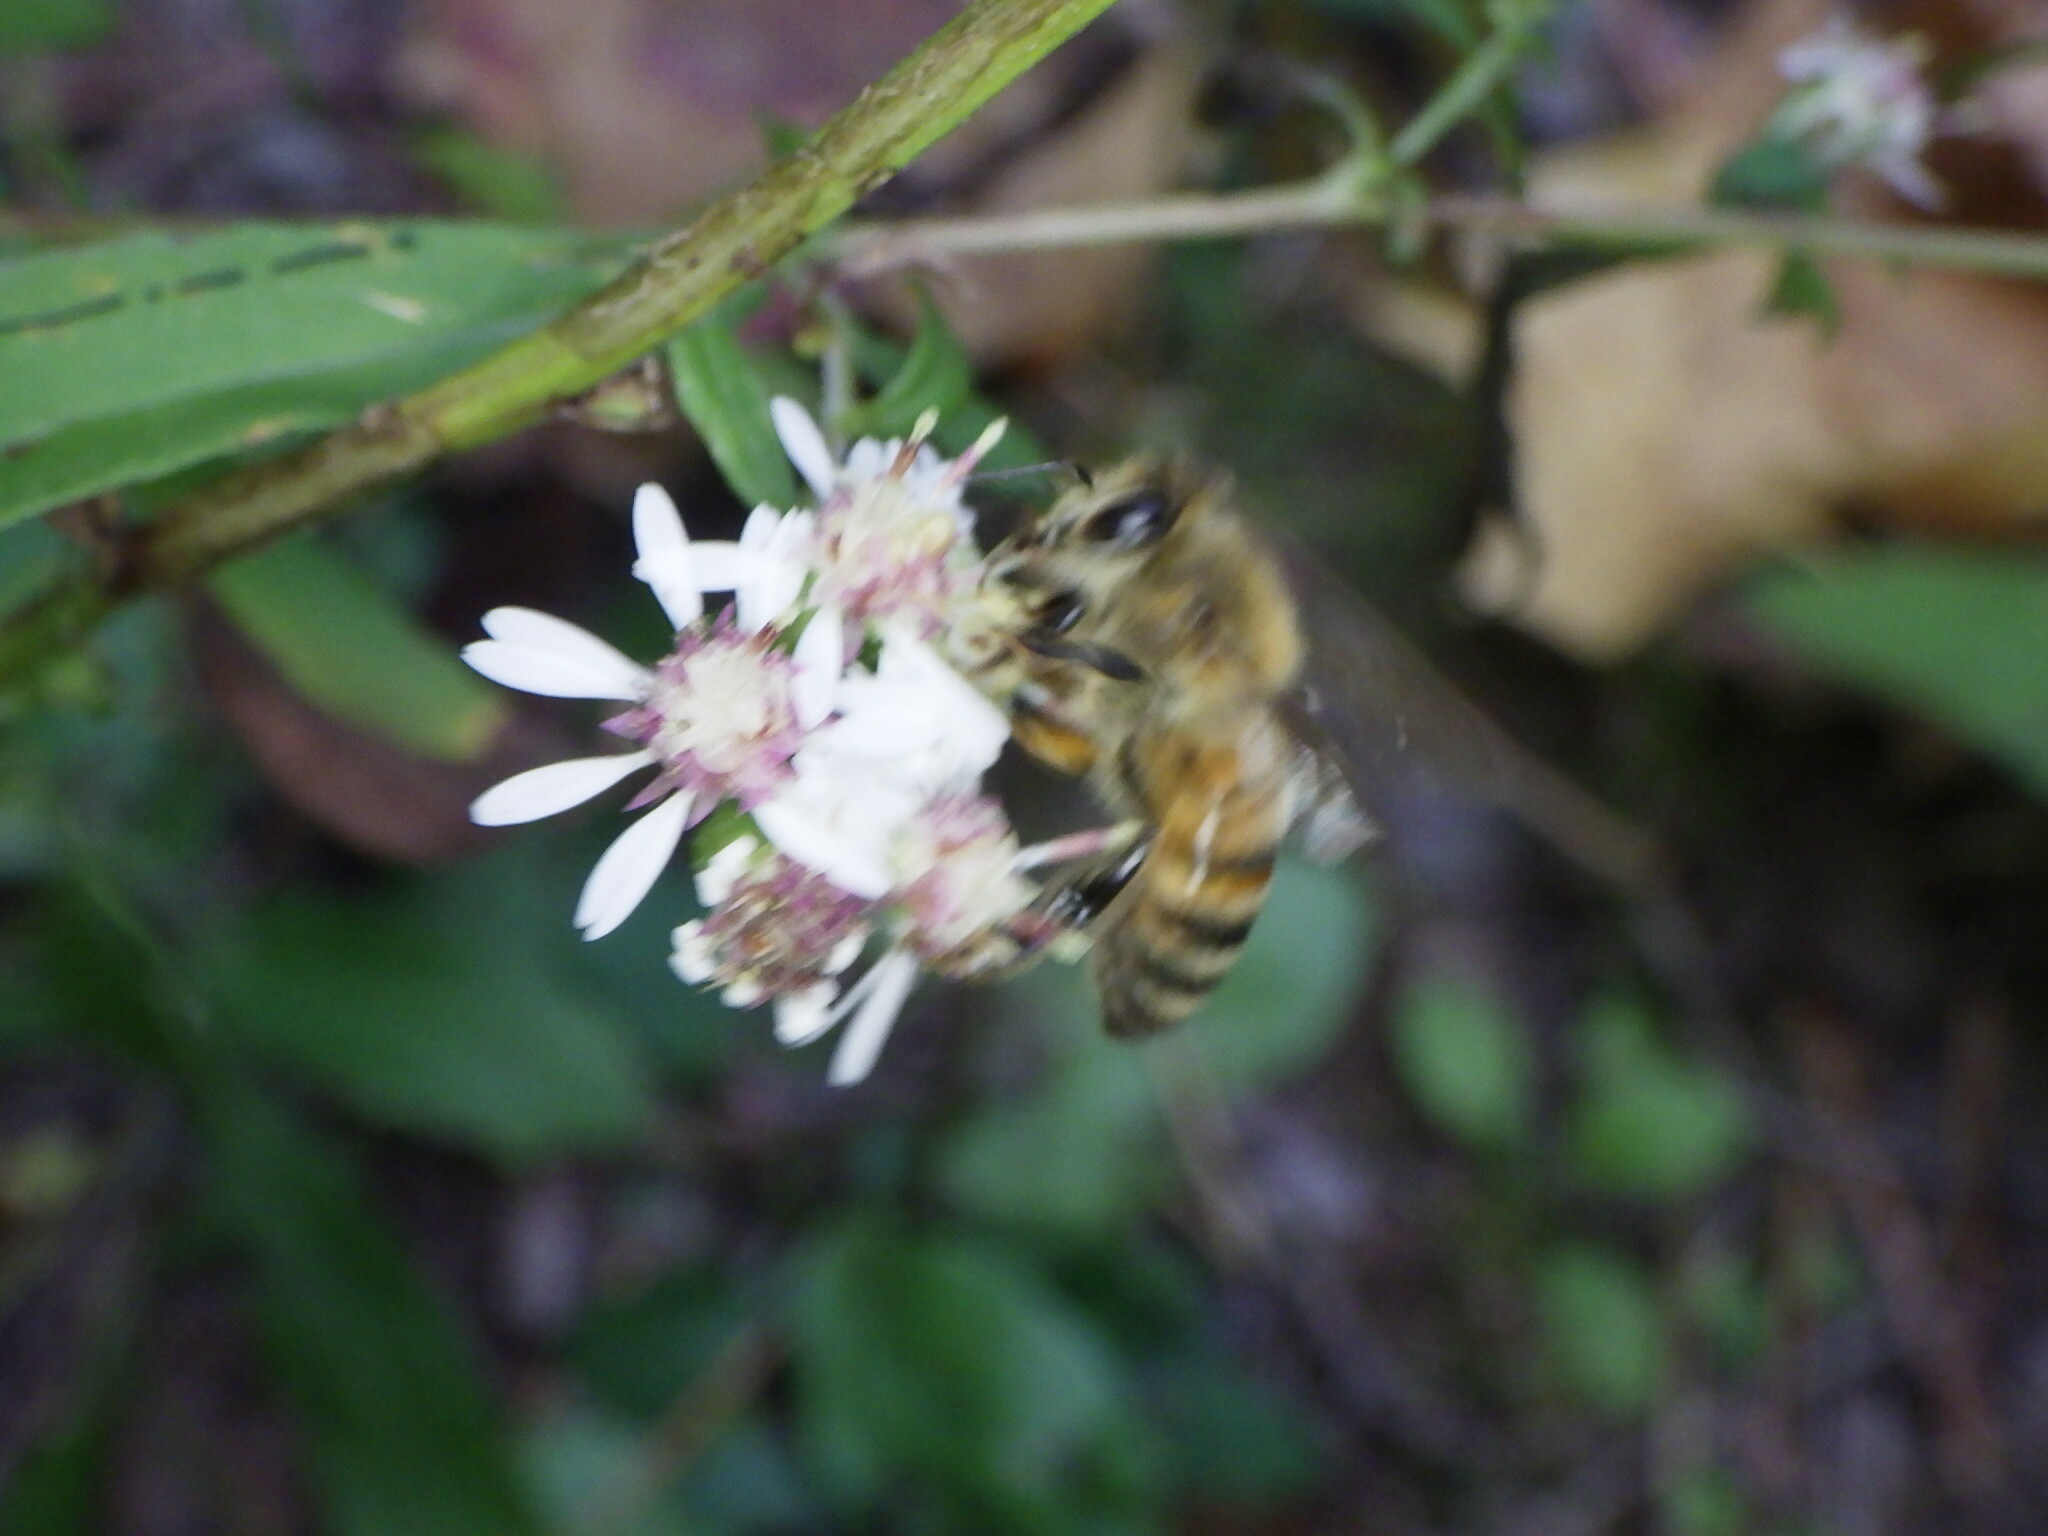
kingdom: Animalia
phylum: Arthropoda
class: Insecta
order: Hymenoptera
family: Apidae
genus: Apis
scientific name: Apis mellifera
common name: Honey bee
